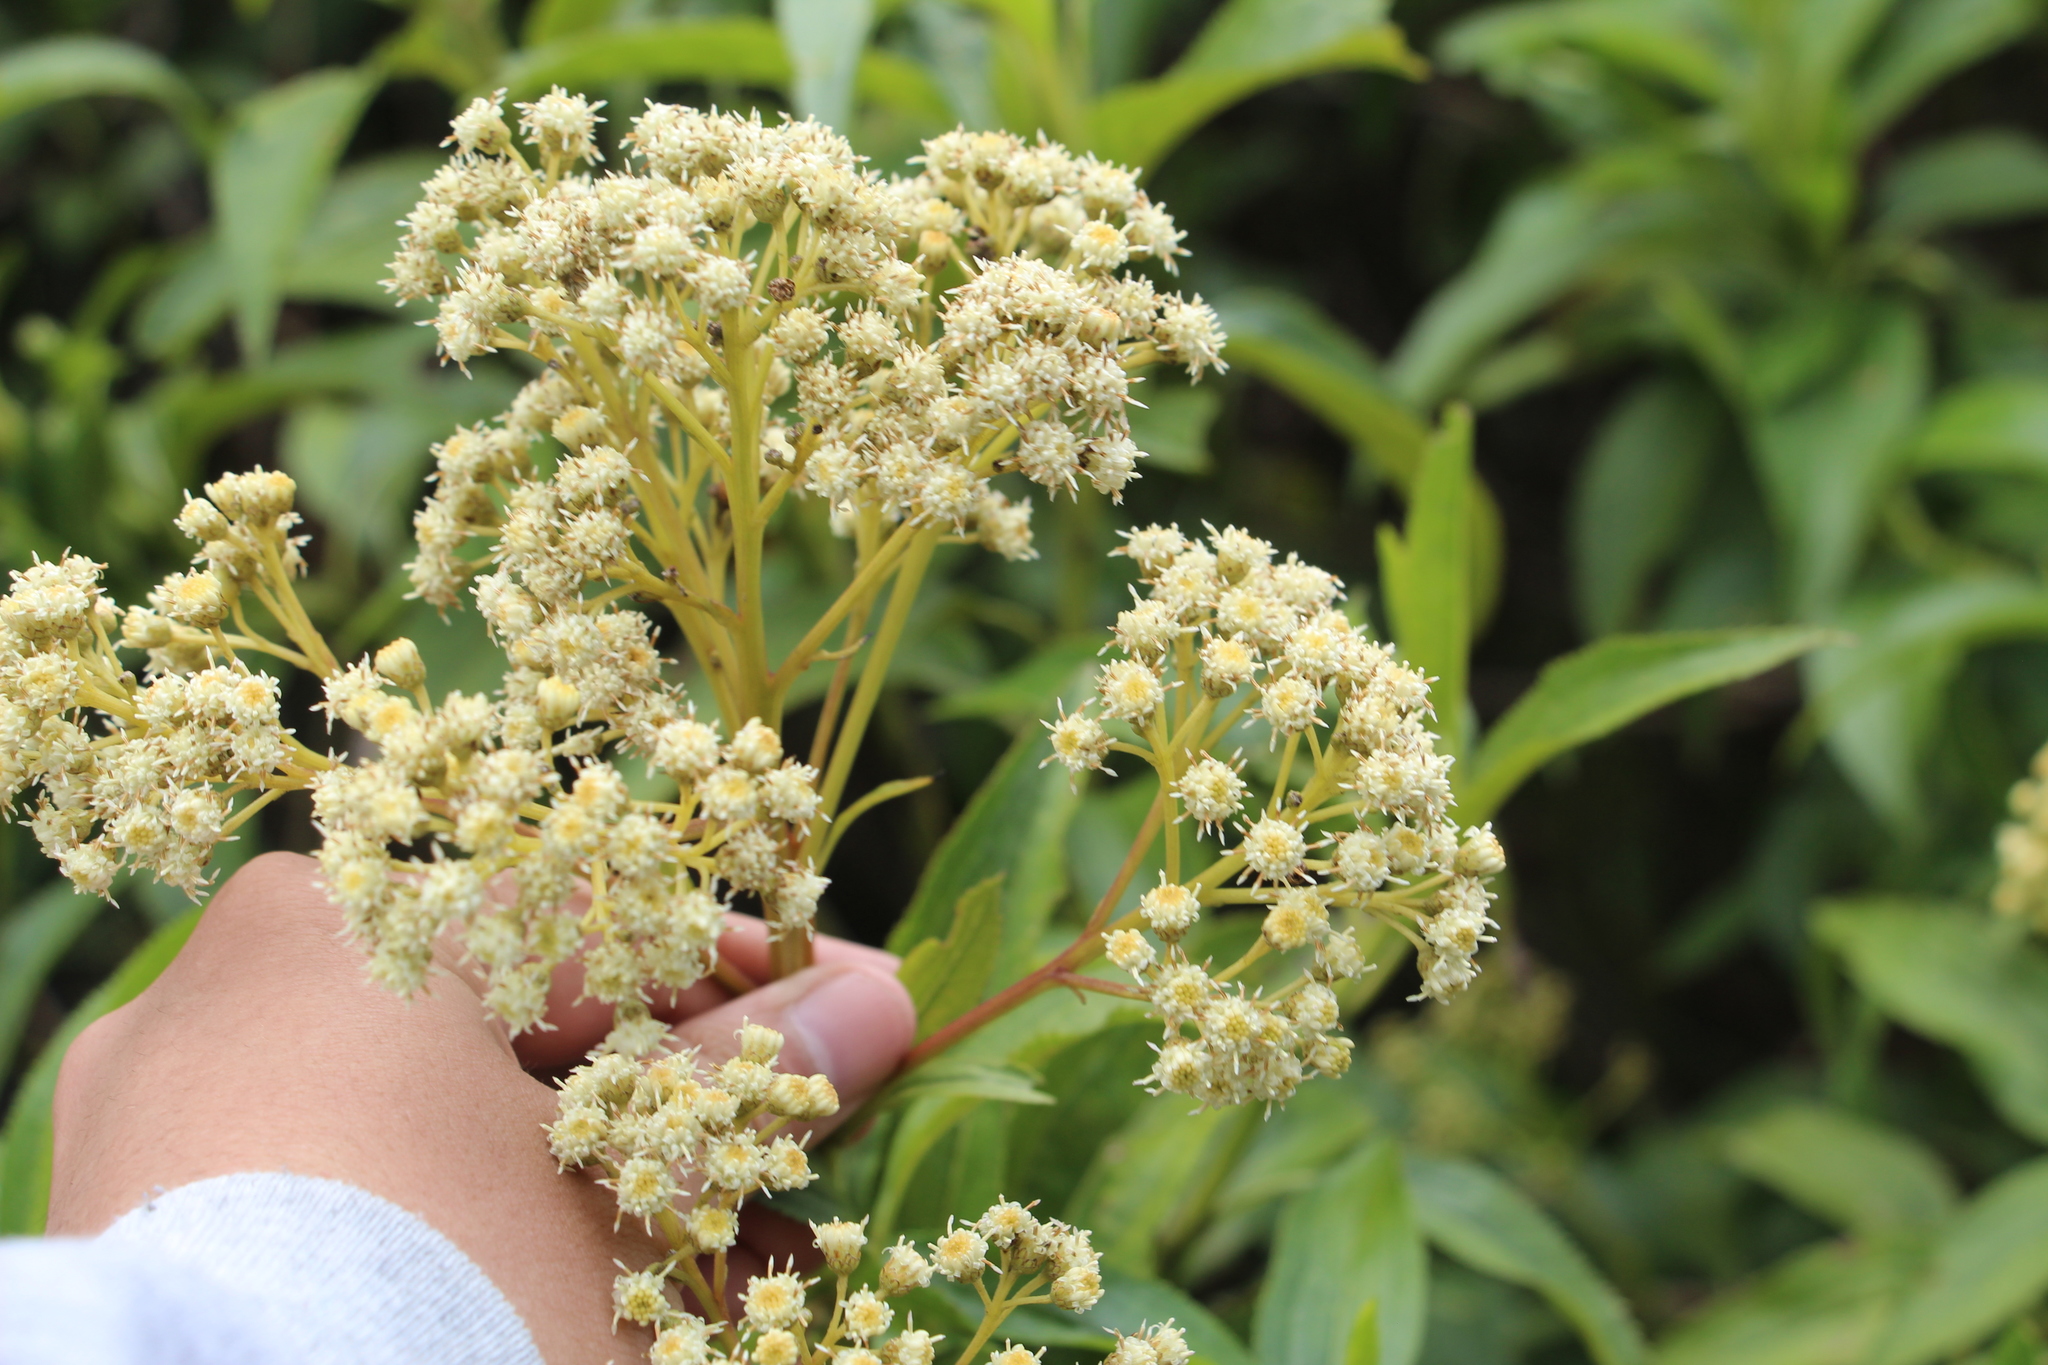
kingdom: Plantae
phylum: Tracheophyta
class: Magnoliopsida
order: Asterales
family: Asteraceae
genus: Baccharis
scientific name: Baccharis latifolia
